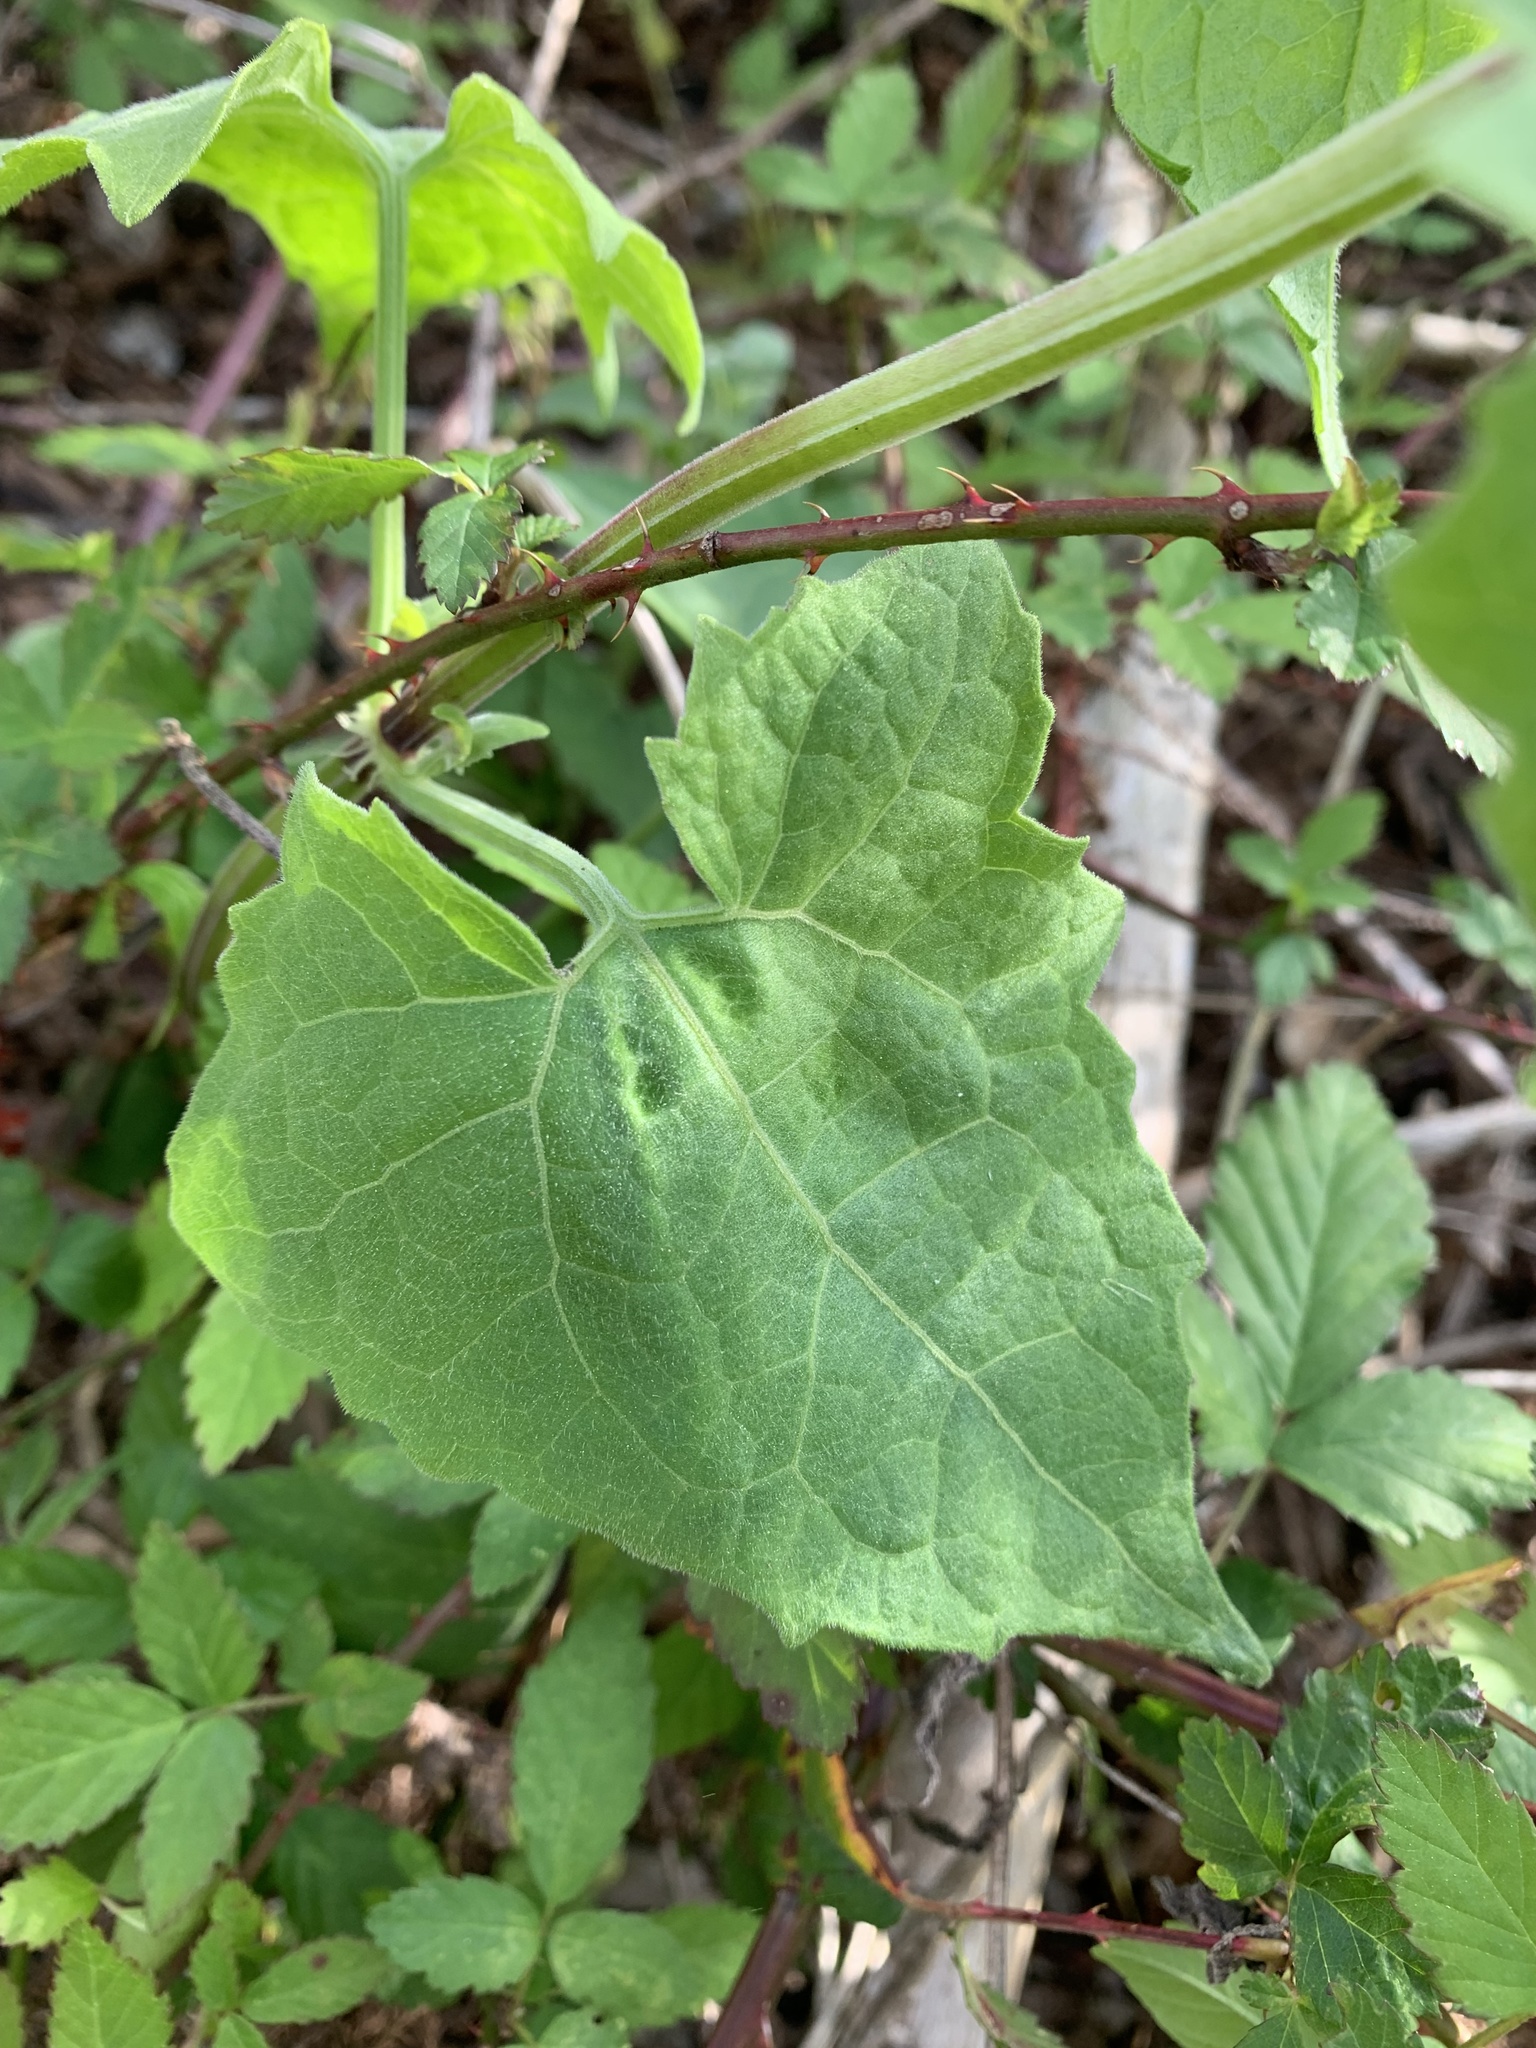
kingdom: Plantae
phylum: Tracheophyta
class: Magnoliopsida
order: Asterales
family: Asteraceae
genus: Mikania
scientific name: Mikania scandens
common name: Climbing hempvine
